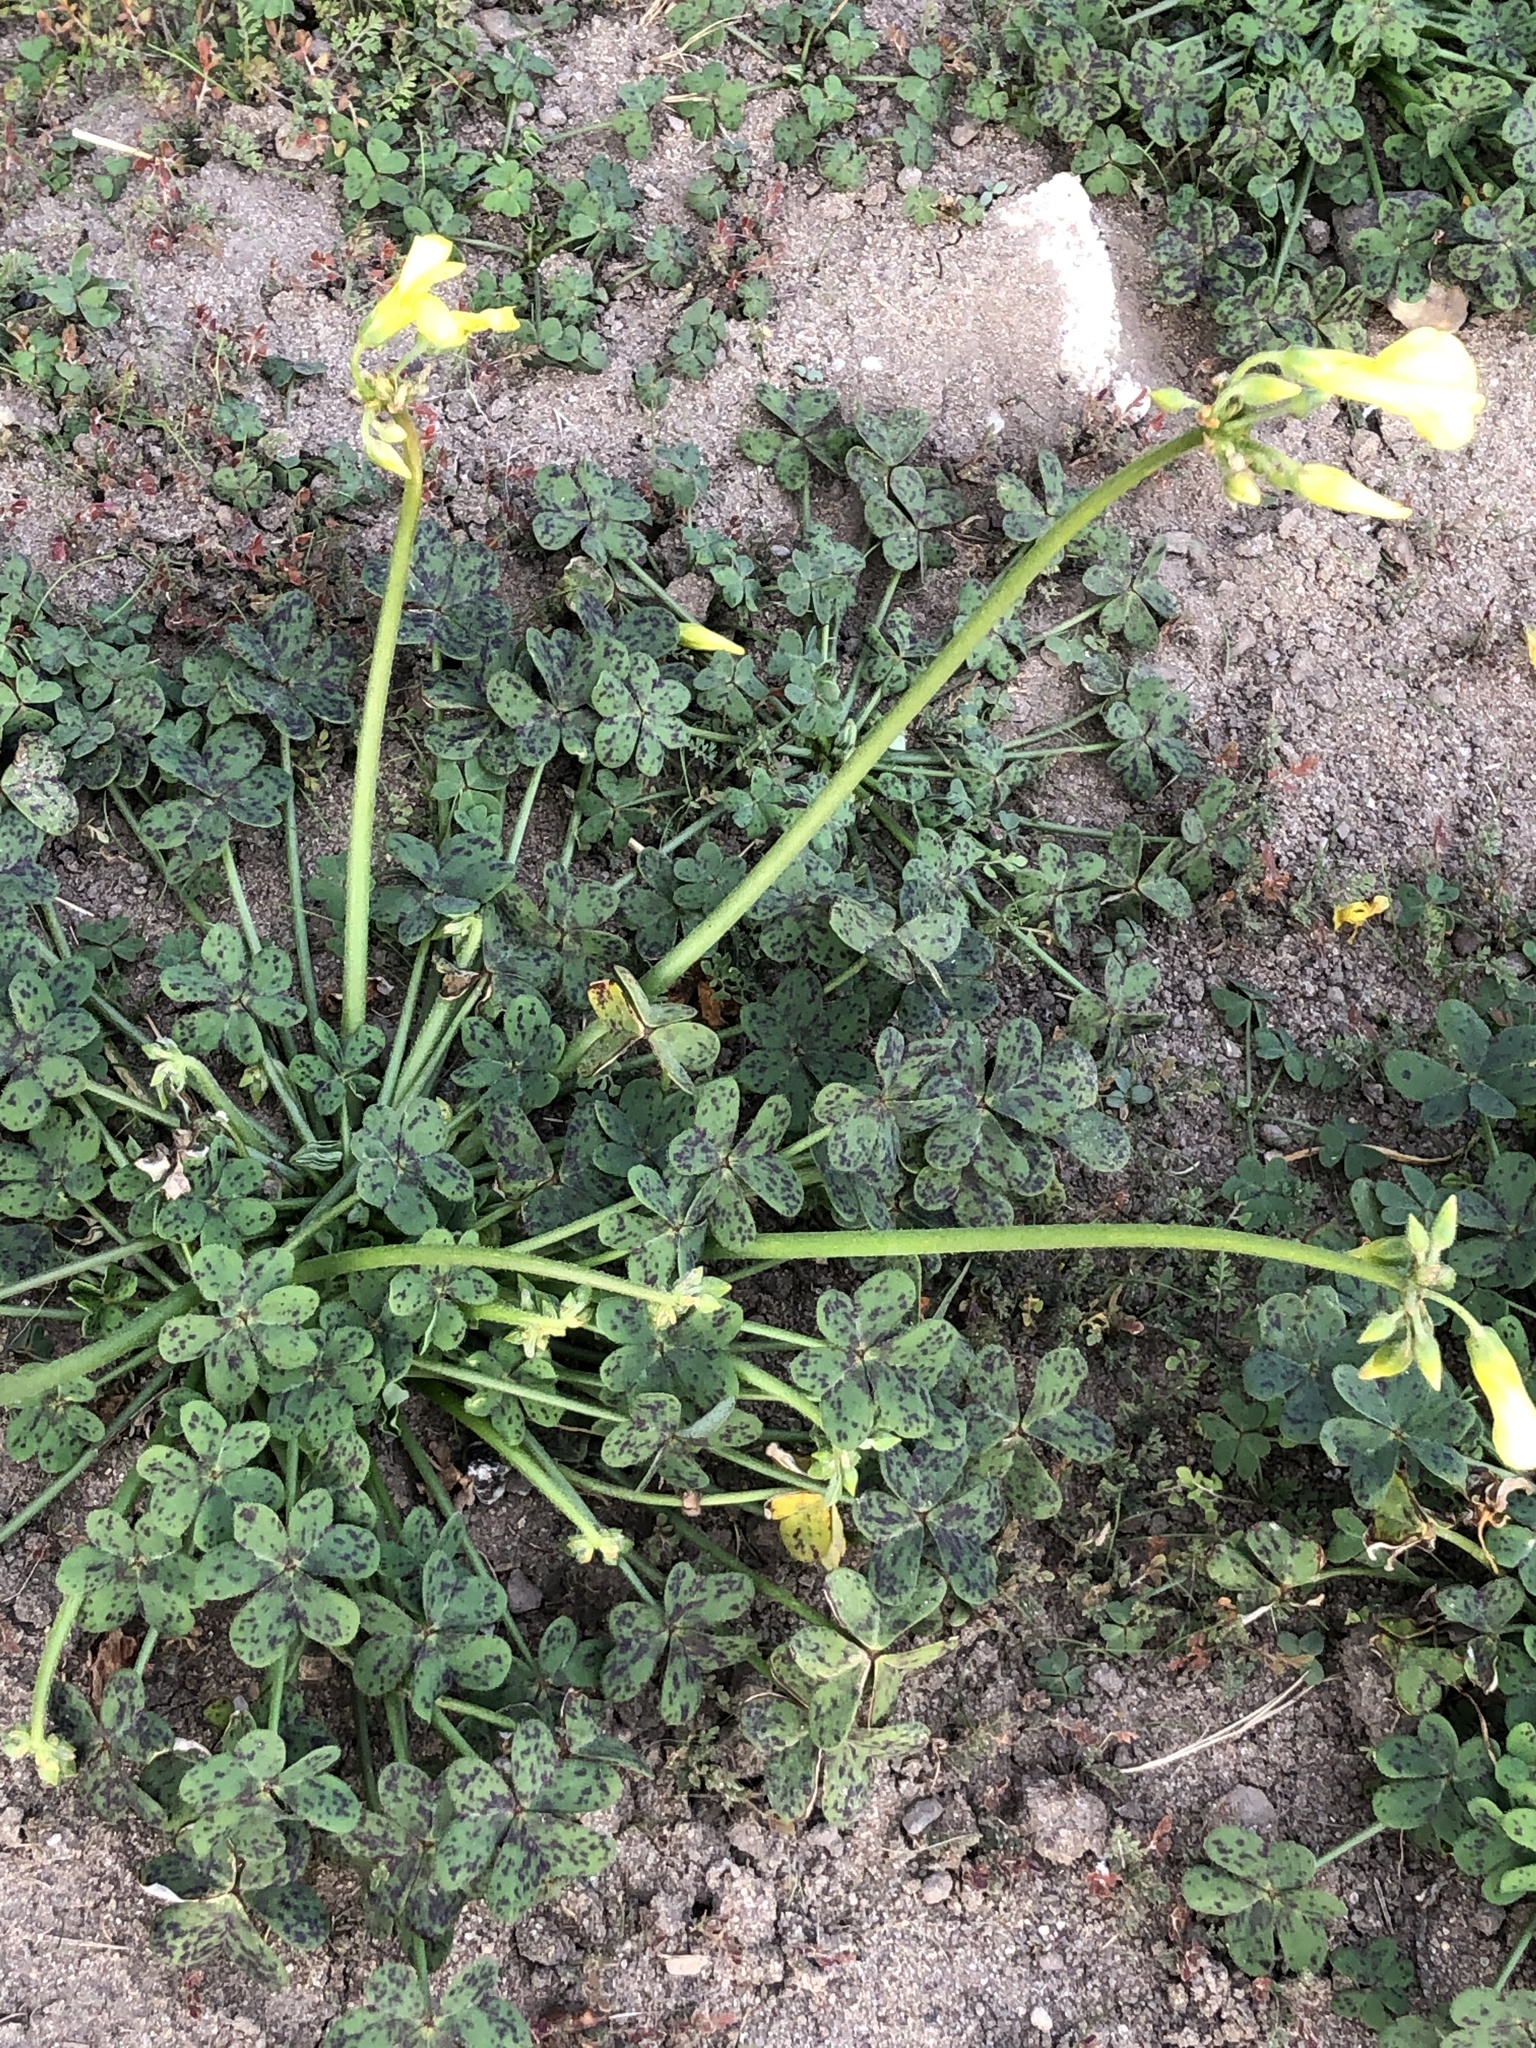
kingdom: Plantae
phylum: Tracheophyta
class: Magnoliopsida
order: Oxalidales
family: Oxalidaceae
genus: Oxalis
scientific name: Oxalis pes-caprae
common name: Bermuda-buttercup
